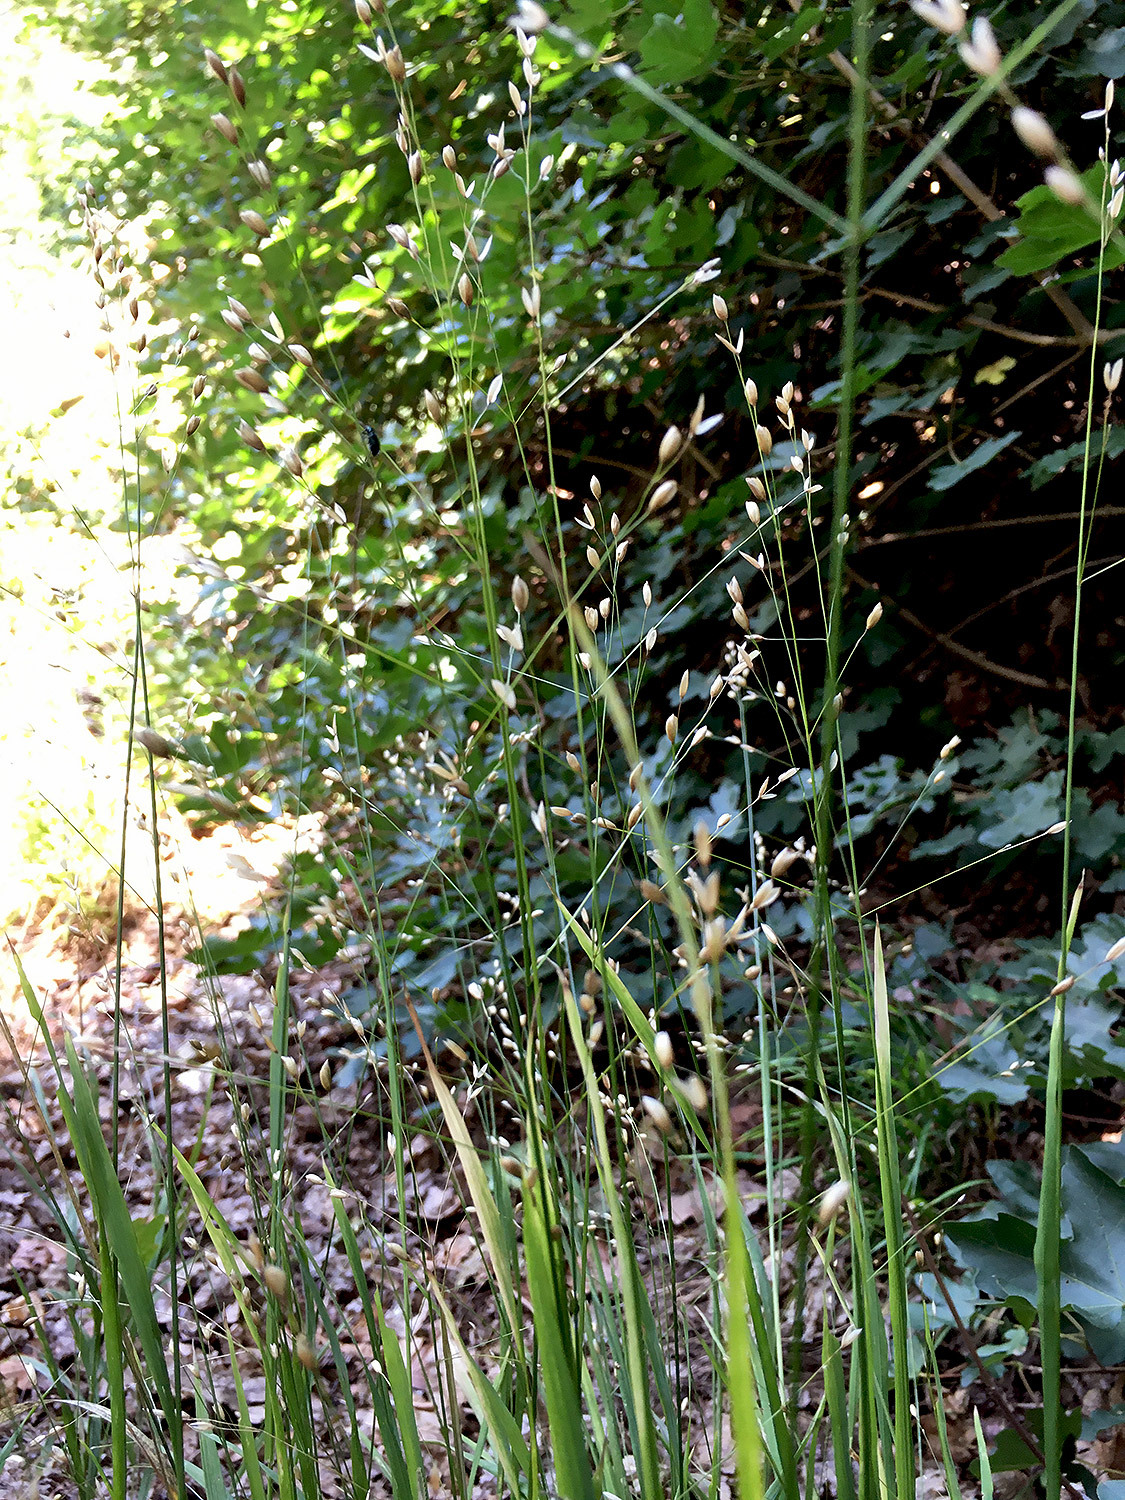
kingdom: Plantae
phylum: Tracheophyta
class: Liliopsida
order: Poales
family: Poaceae
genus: Melica
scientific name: Melica uniflora
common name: Wood melick
